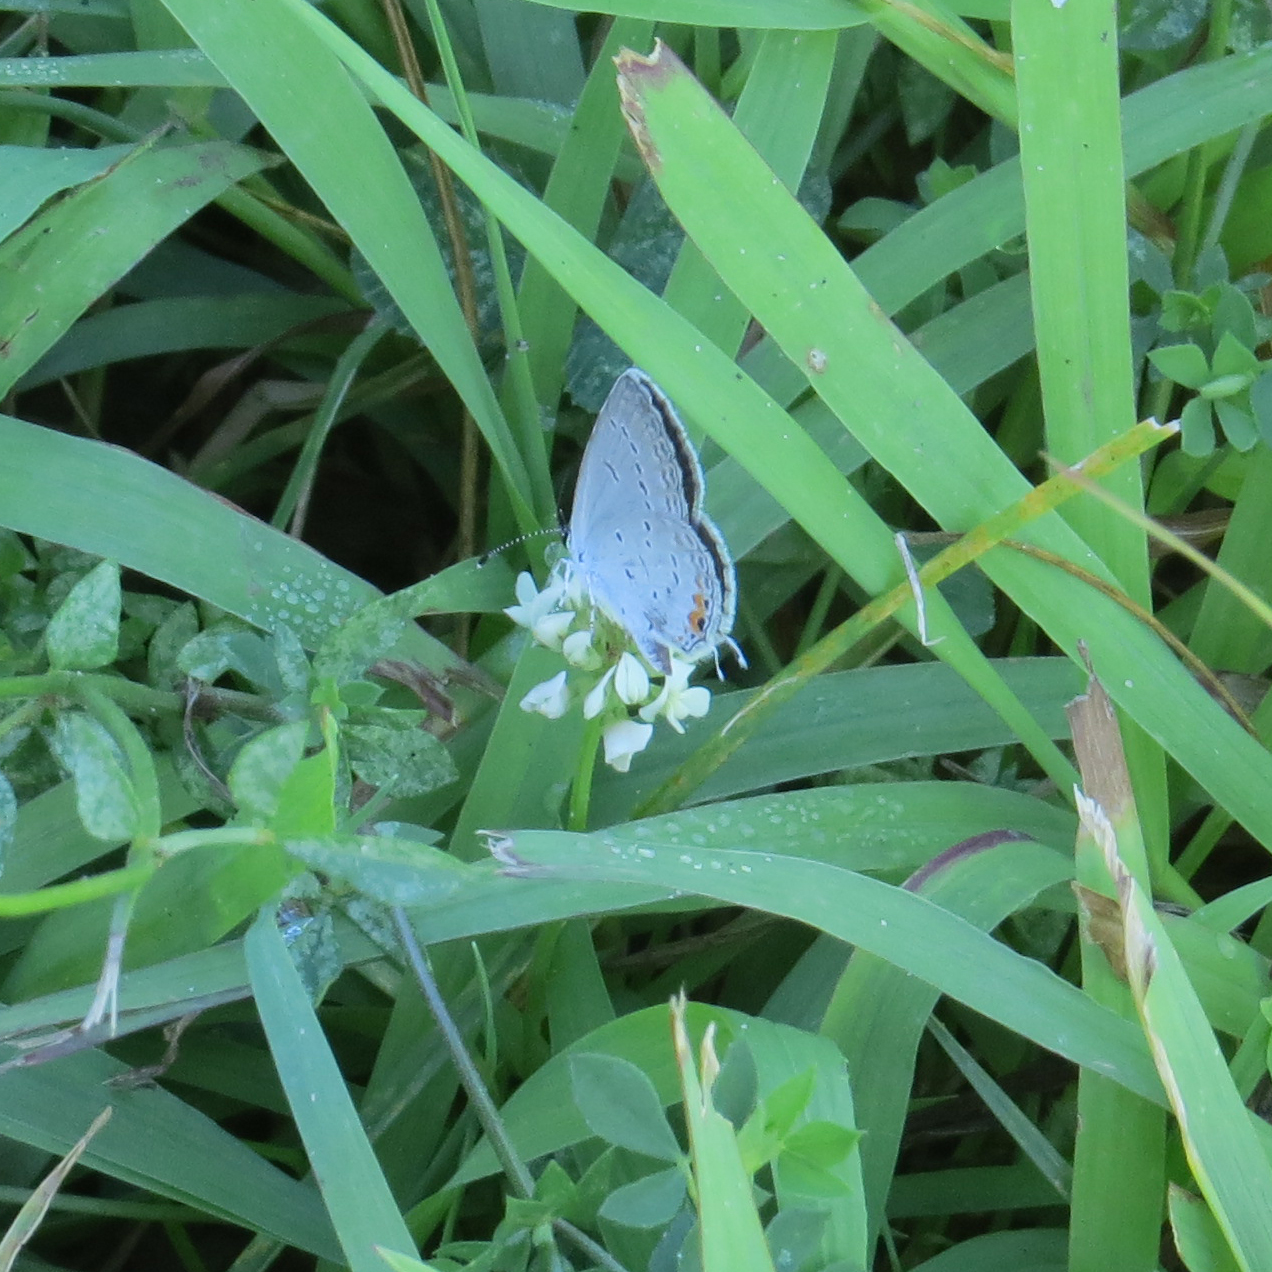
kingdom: Animalia
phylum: Arthropoda
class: Insecta
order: Lepidoptera
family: Lycaenidae
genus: Elkalyce
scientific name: Elkalyce comyntas
